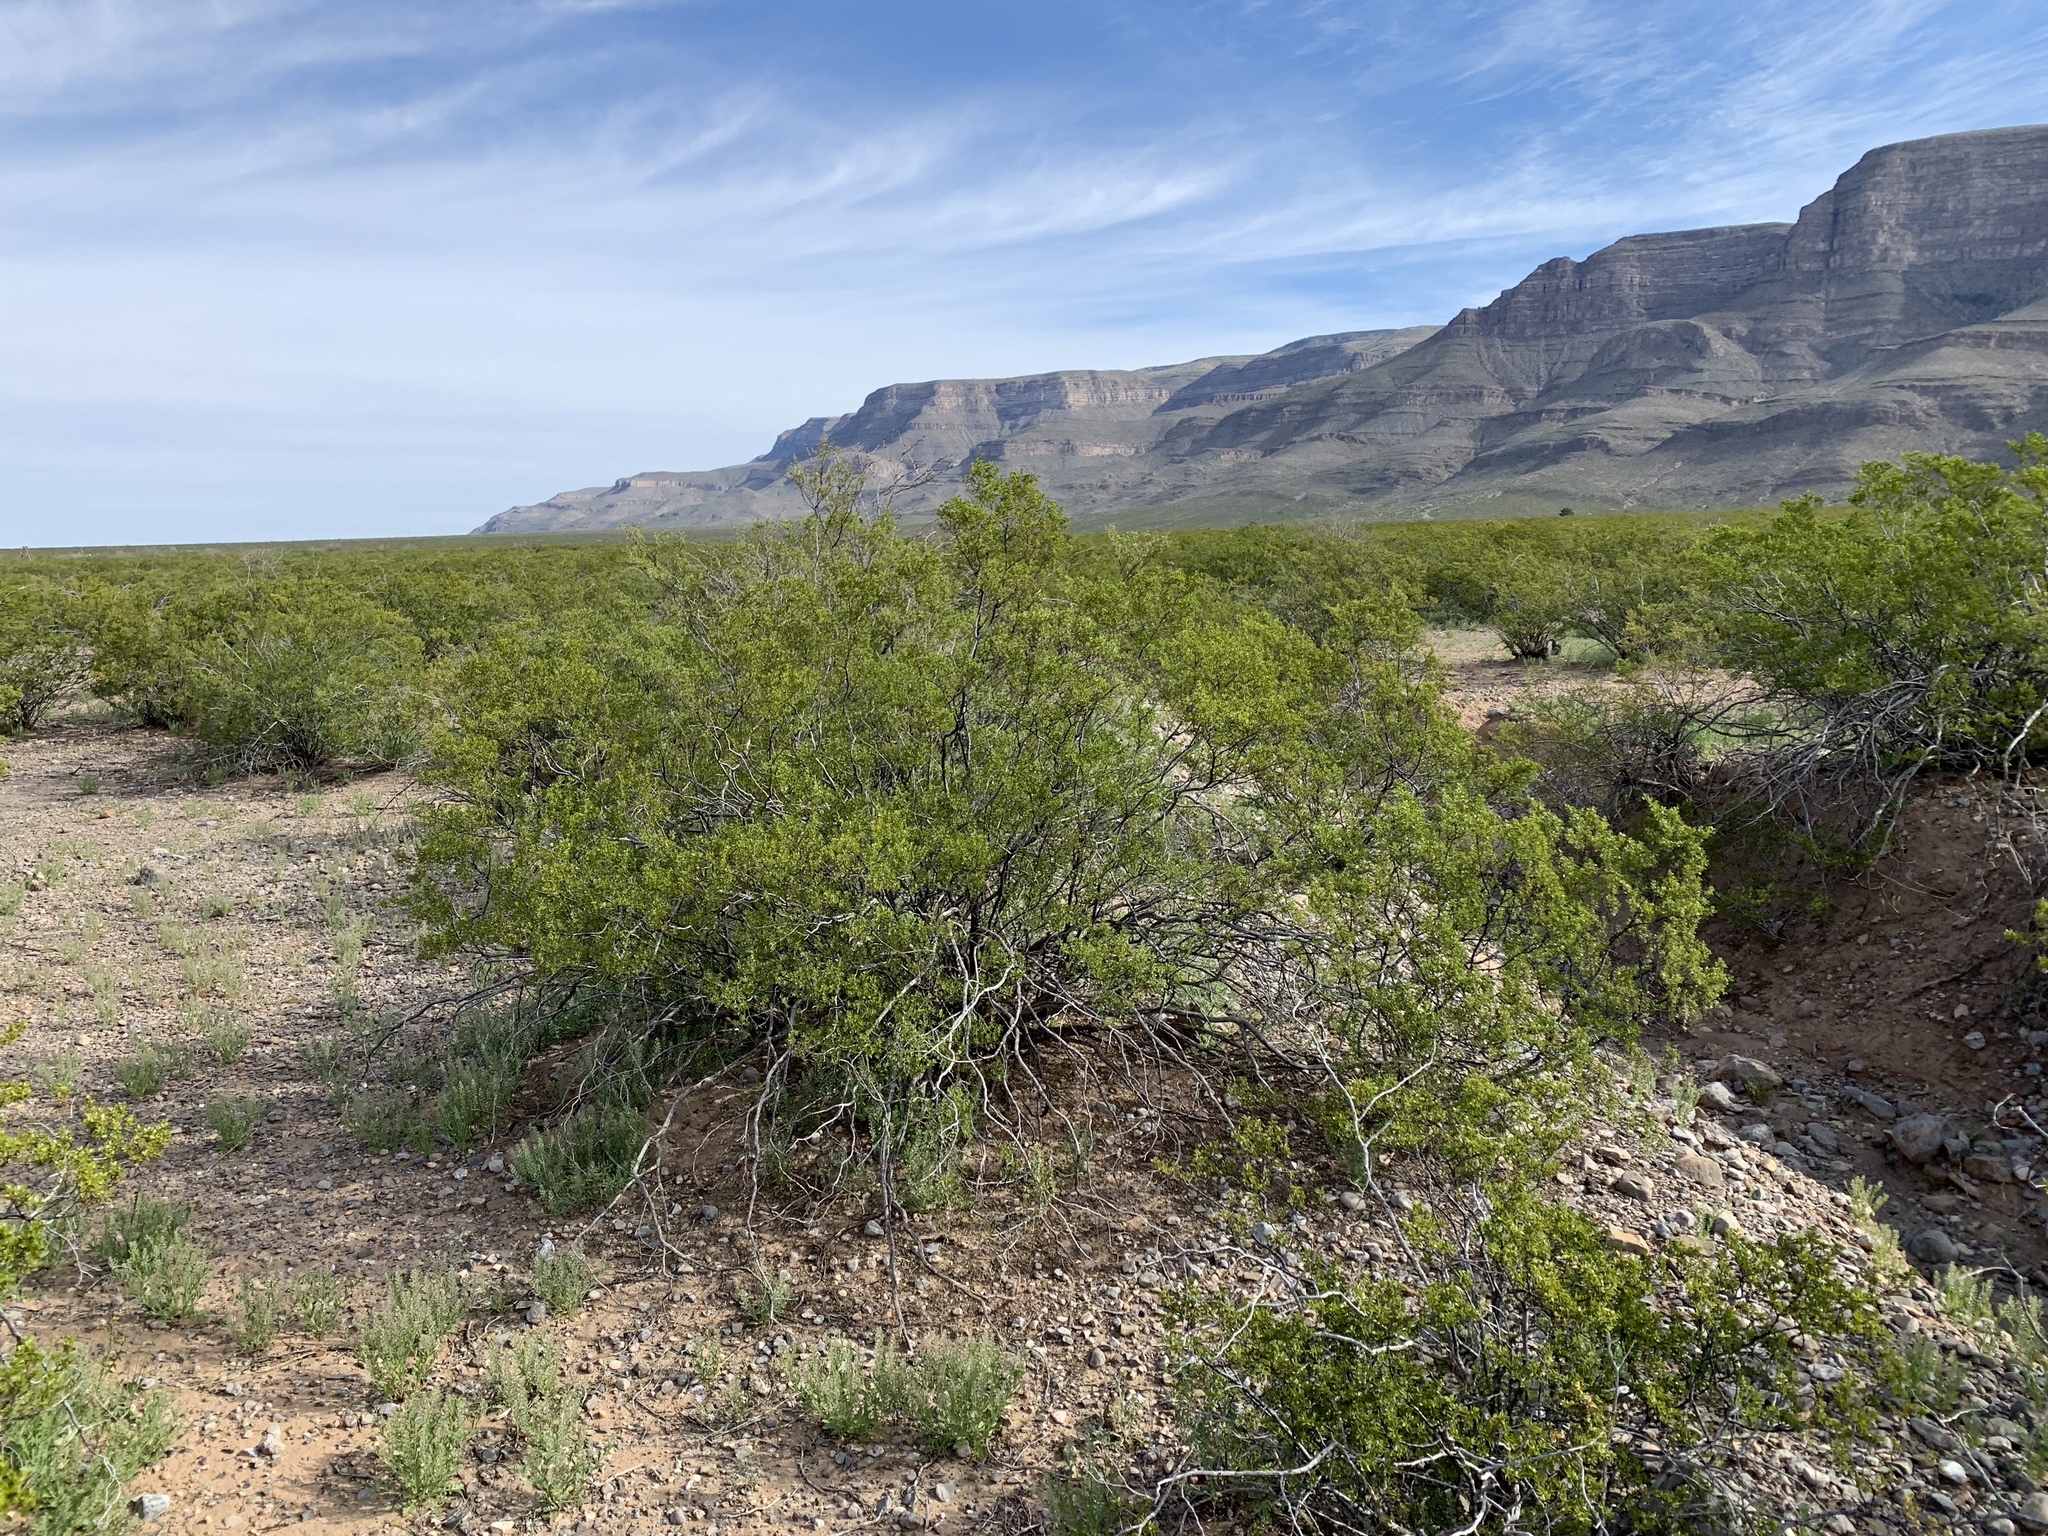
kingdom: Plantae
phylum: Tracheophyta
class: Magnoliopsida
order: Zygophyllales
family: Zygophyllaceae
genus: Larrea
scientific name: Larrea tridentata
